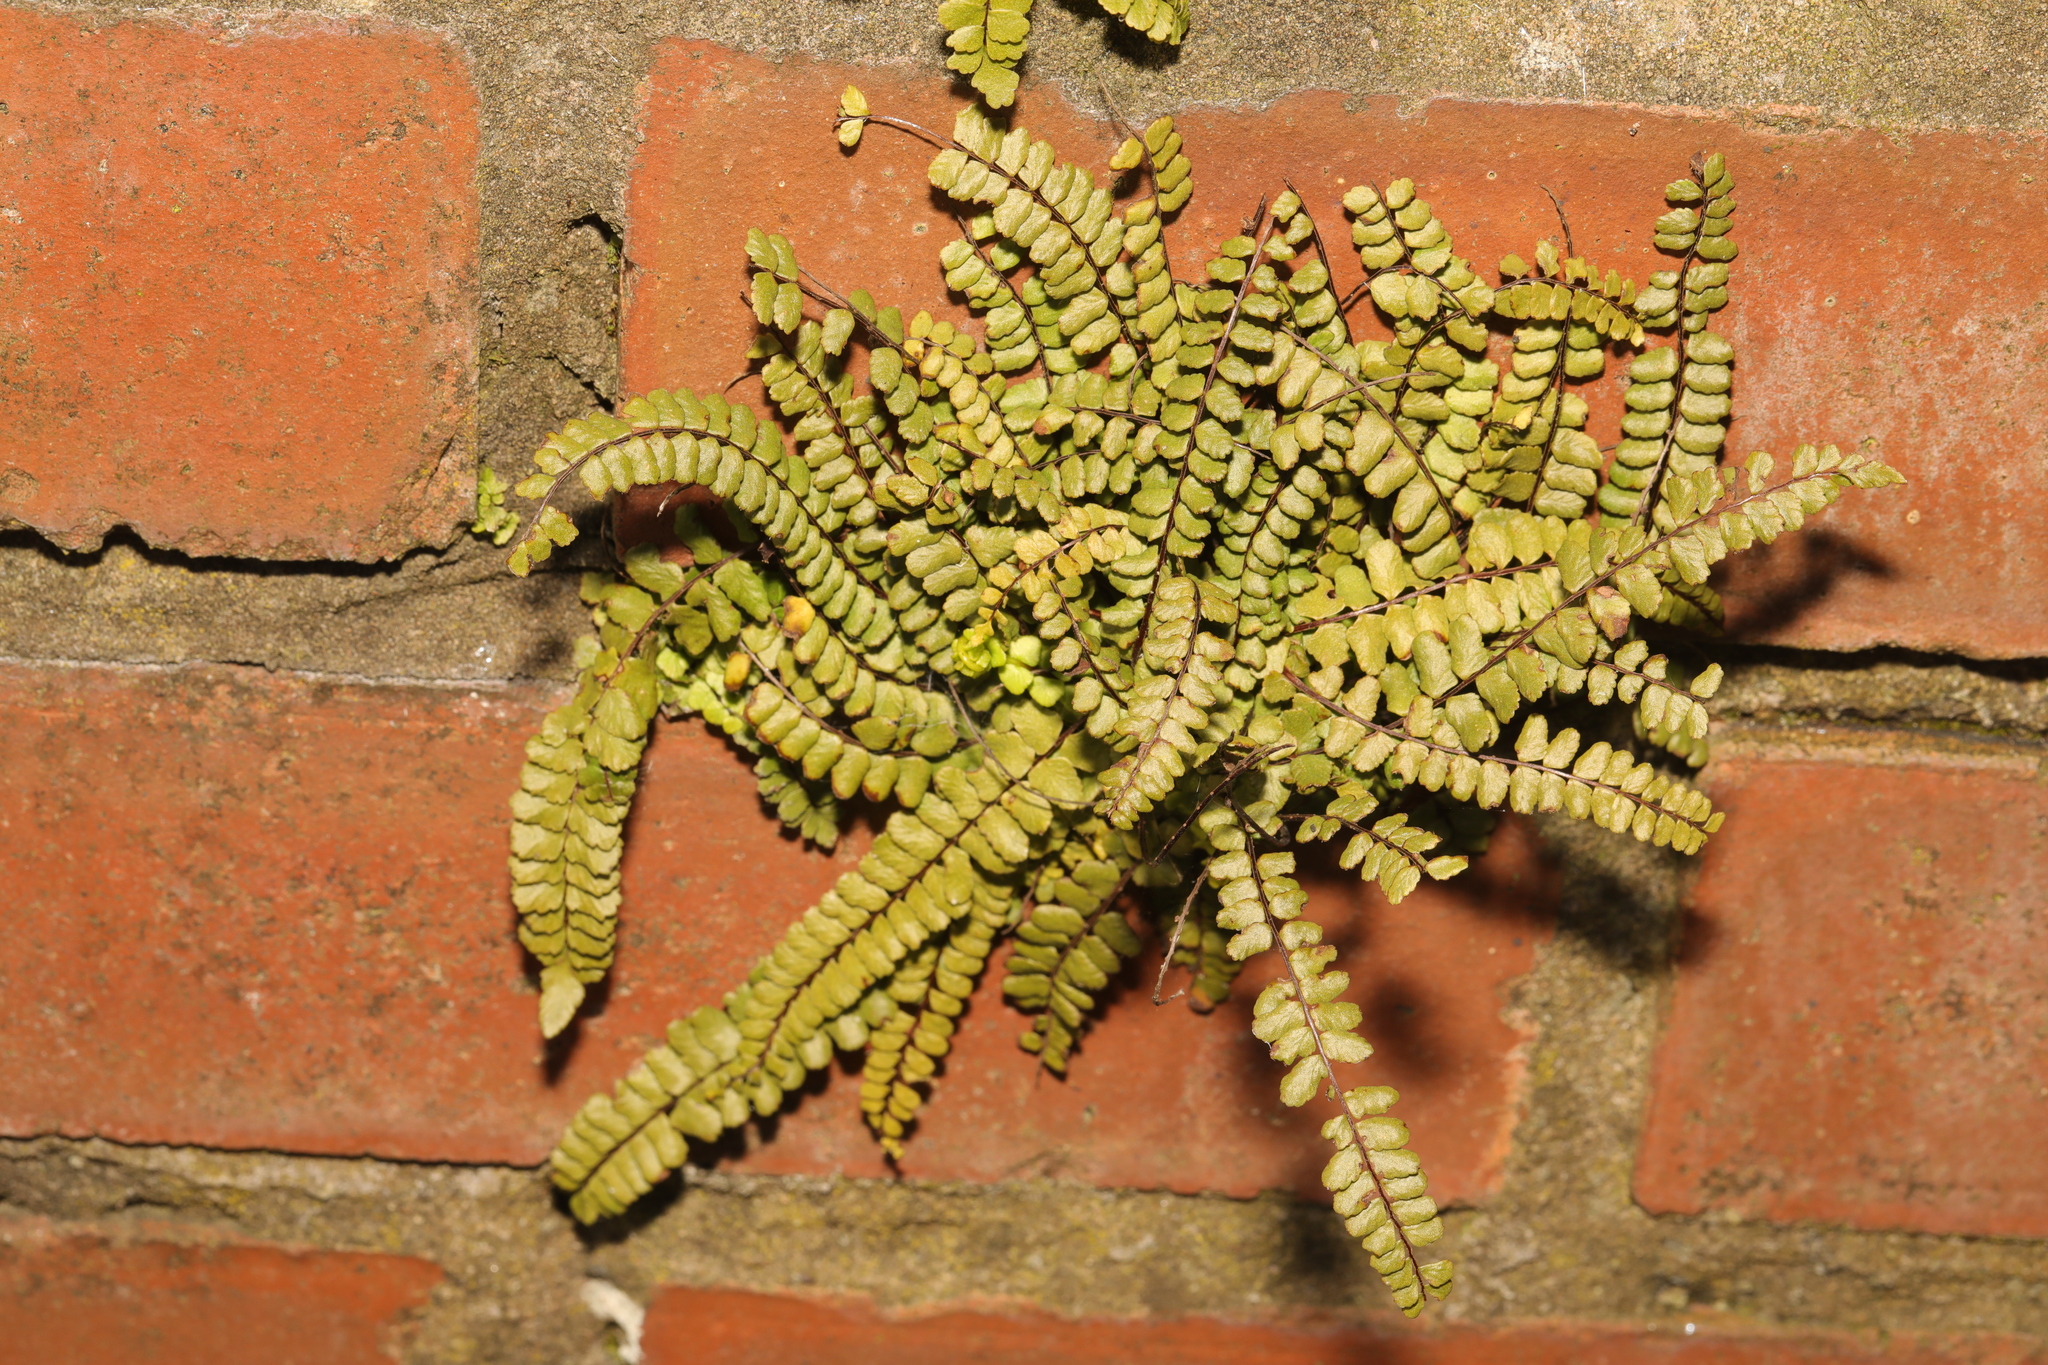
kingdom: Plantae
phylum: Tracheophyta
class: Polypodiopsida
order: Polypodiales
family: Aspleniaceae
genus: Asplenium
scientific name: Asplenium trichomanes
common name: Maidenhair spleenwort
